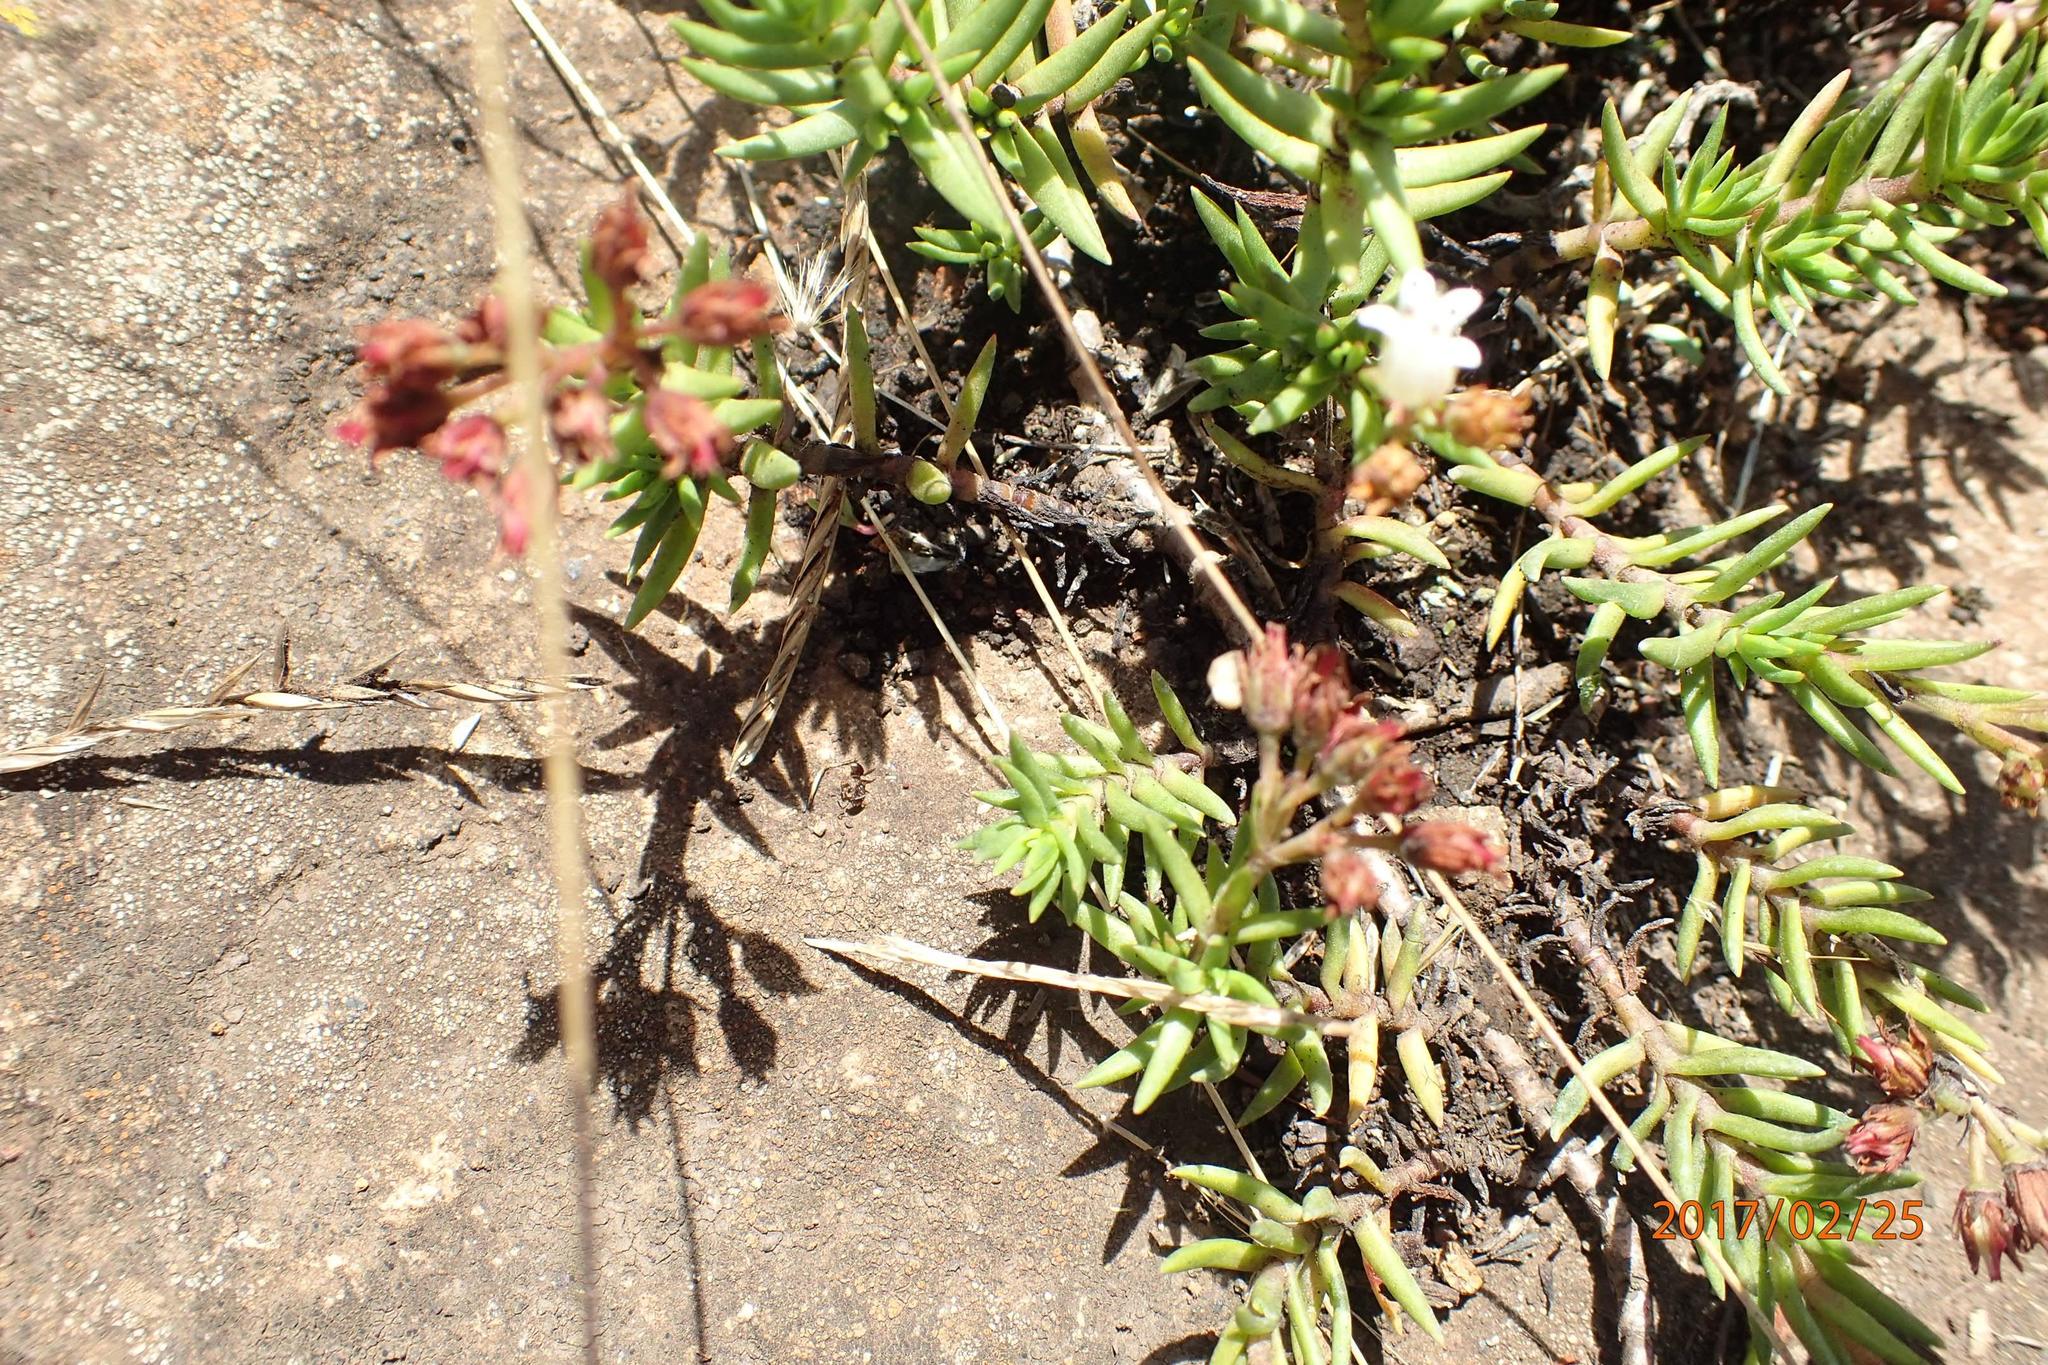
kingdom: Plantae
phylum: Tracheophyta
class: Magnoliopsida
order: Saxifragales
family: Crassulaceae
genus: Crassula
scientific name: Crassula dependens
